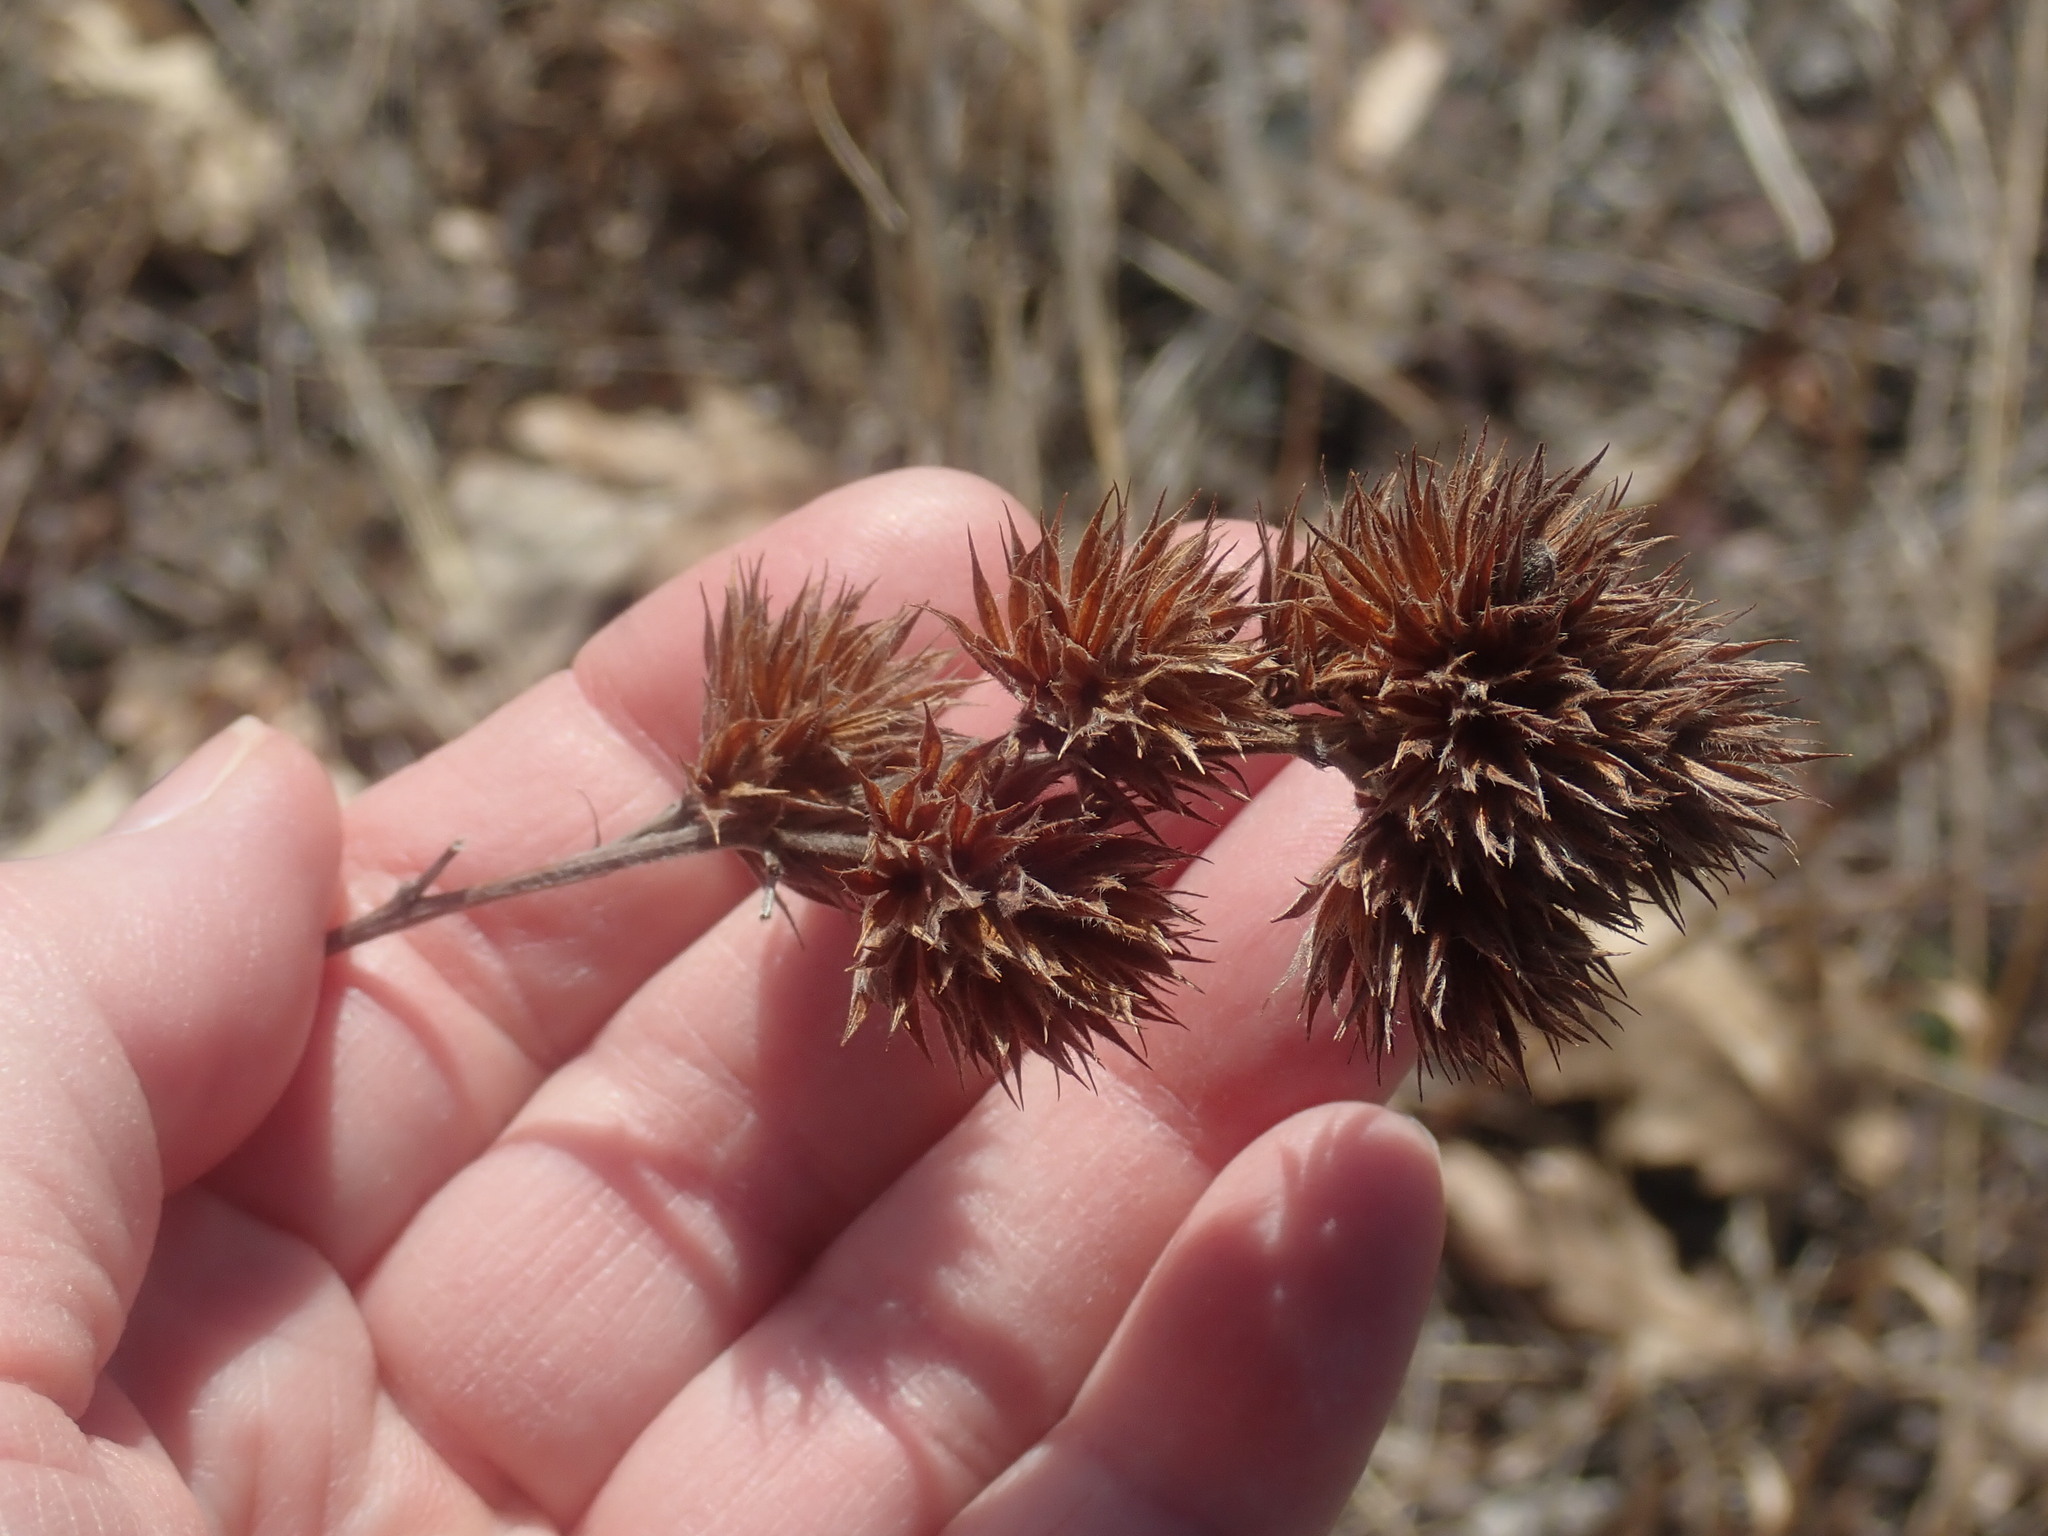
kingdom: Plantae
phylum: Tracheophyta
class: Magnoliopsida
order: Fabales
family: Fabaceae
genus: Lespedeza
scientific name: Lespedeza capitata
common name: Dusty clover
